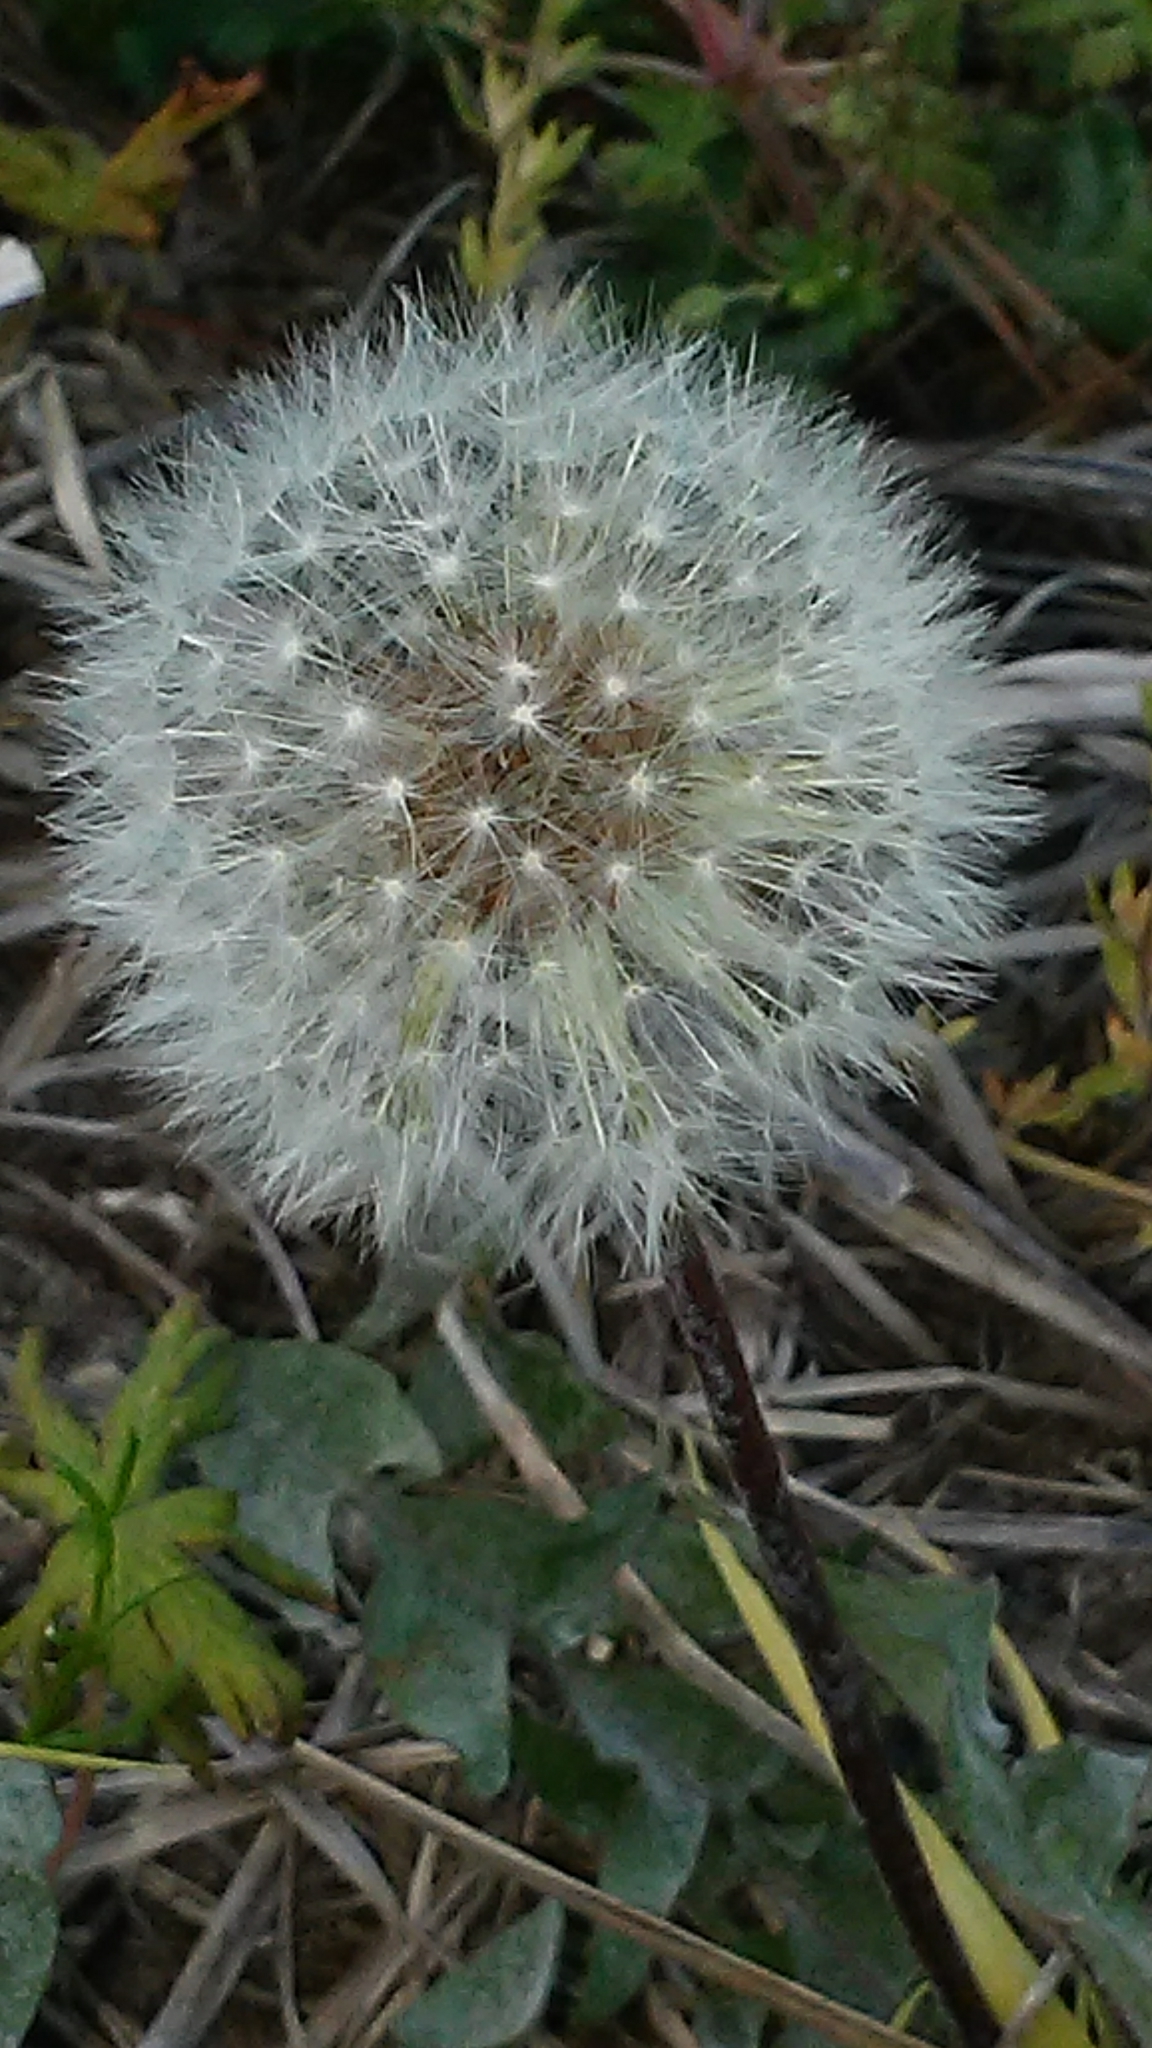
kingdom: Plantae
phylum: Tracheophyta
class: Magnoliopsida
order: Asterales
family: Asteraceae
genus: Taraxacum
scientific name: Taraxacum
